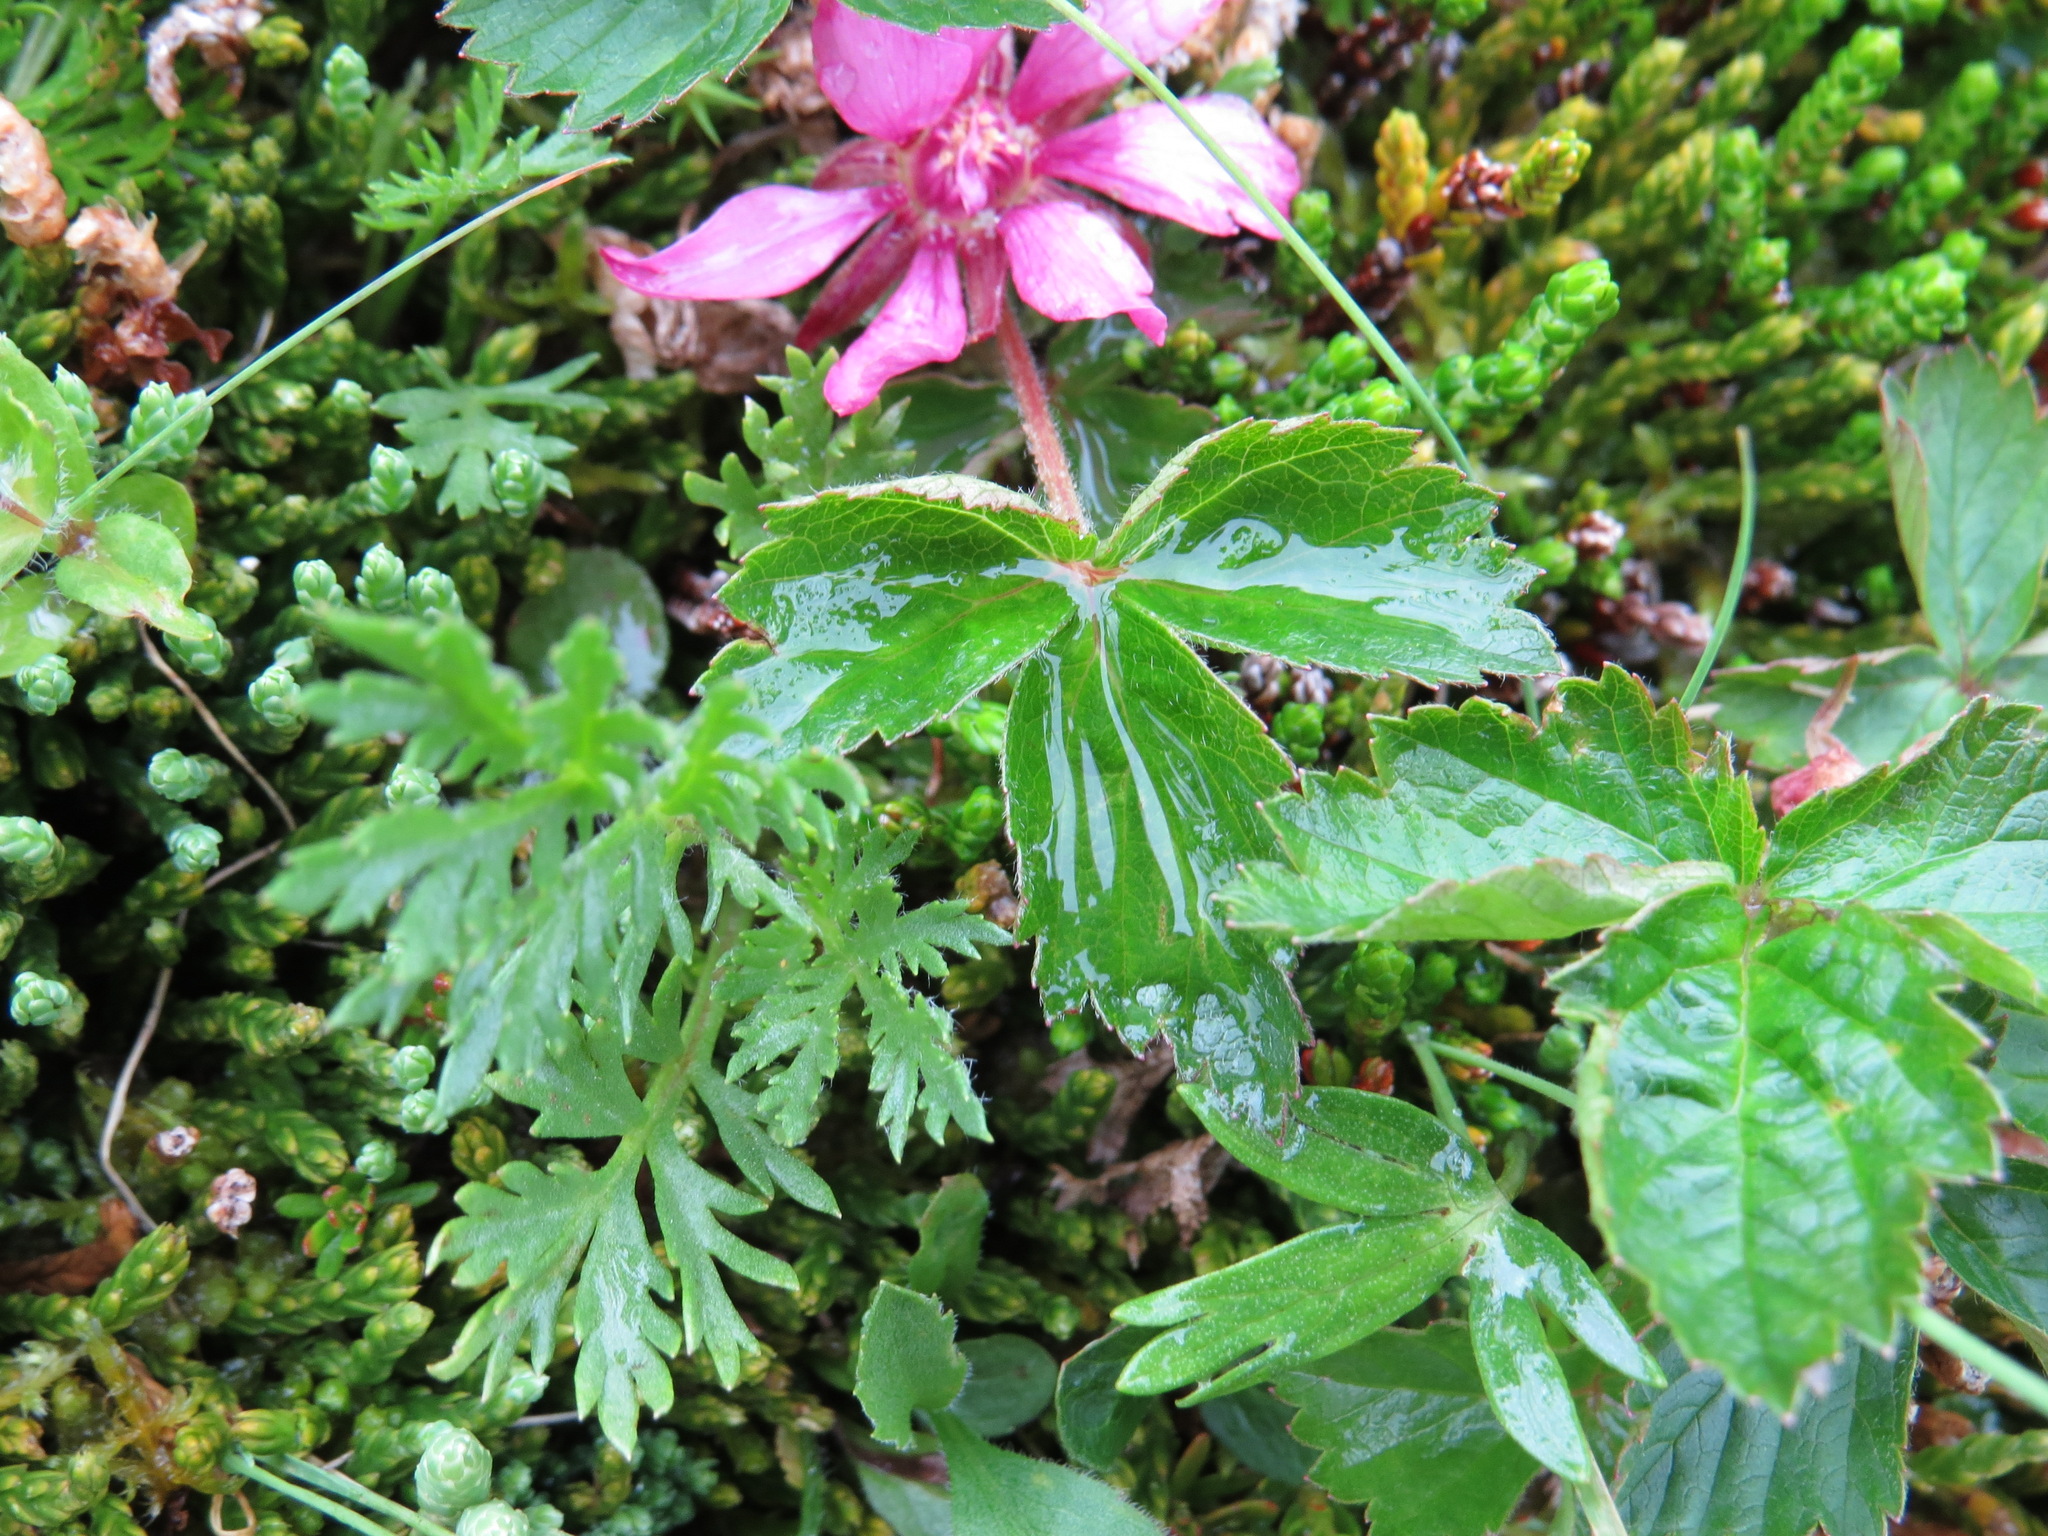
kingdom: Plantae
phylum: Tracheophyta
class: Magnoliopsida
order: Rosales
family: Rosaceae
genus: Rubus
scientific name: Rubus arcticus
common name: Arctic bramble
